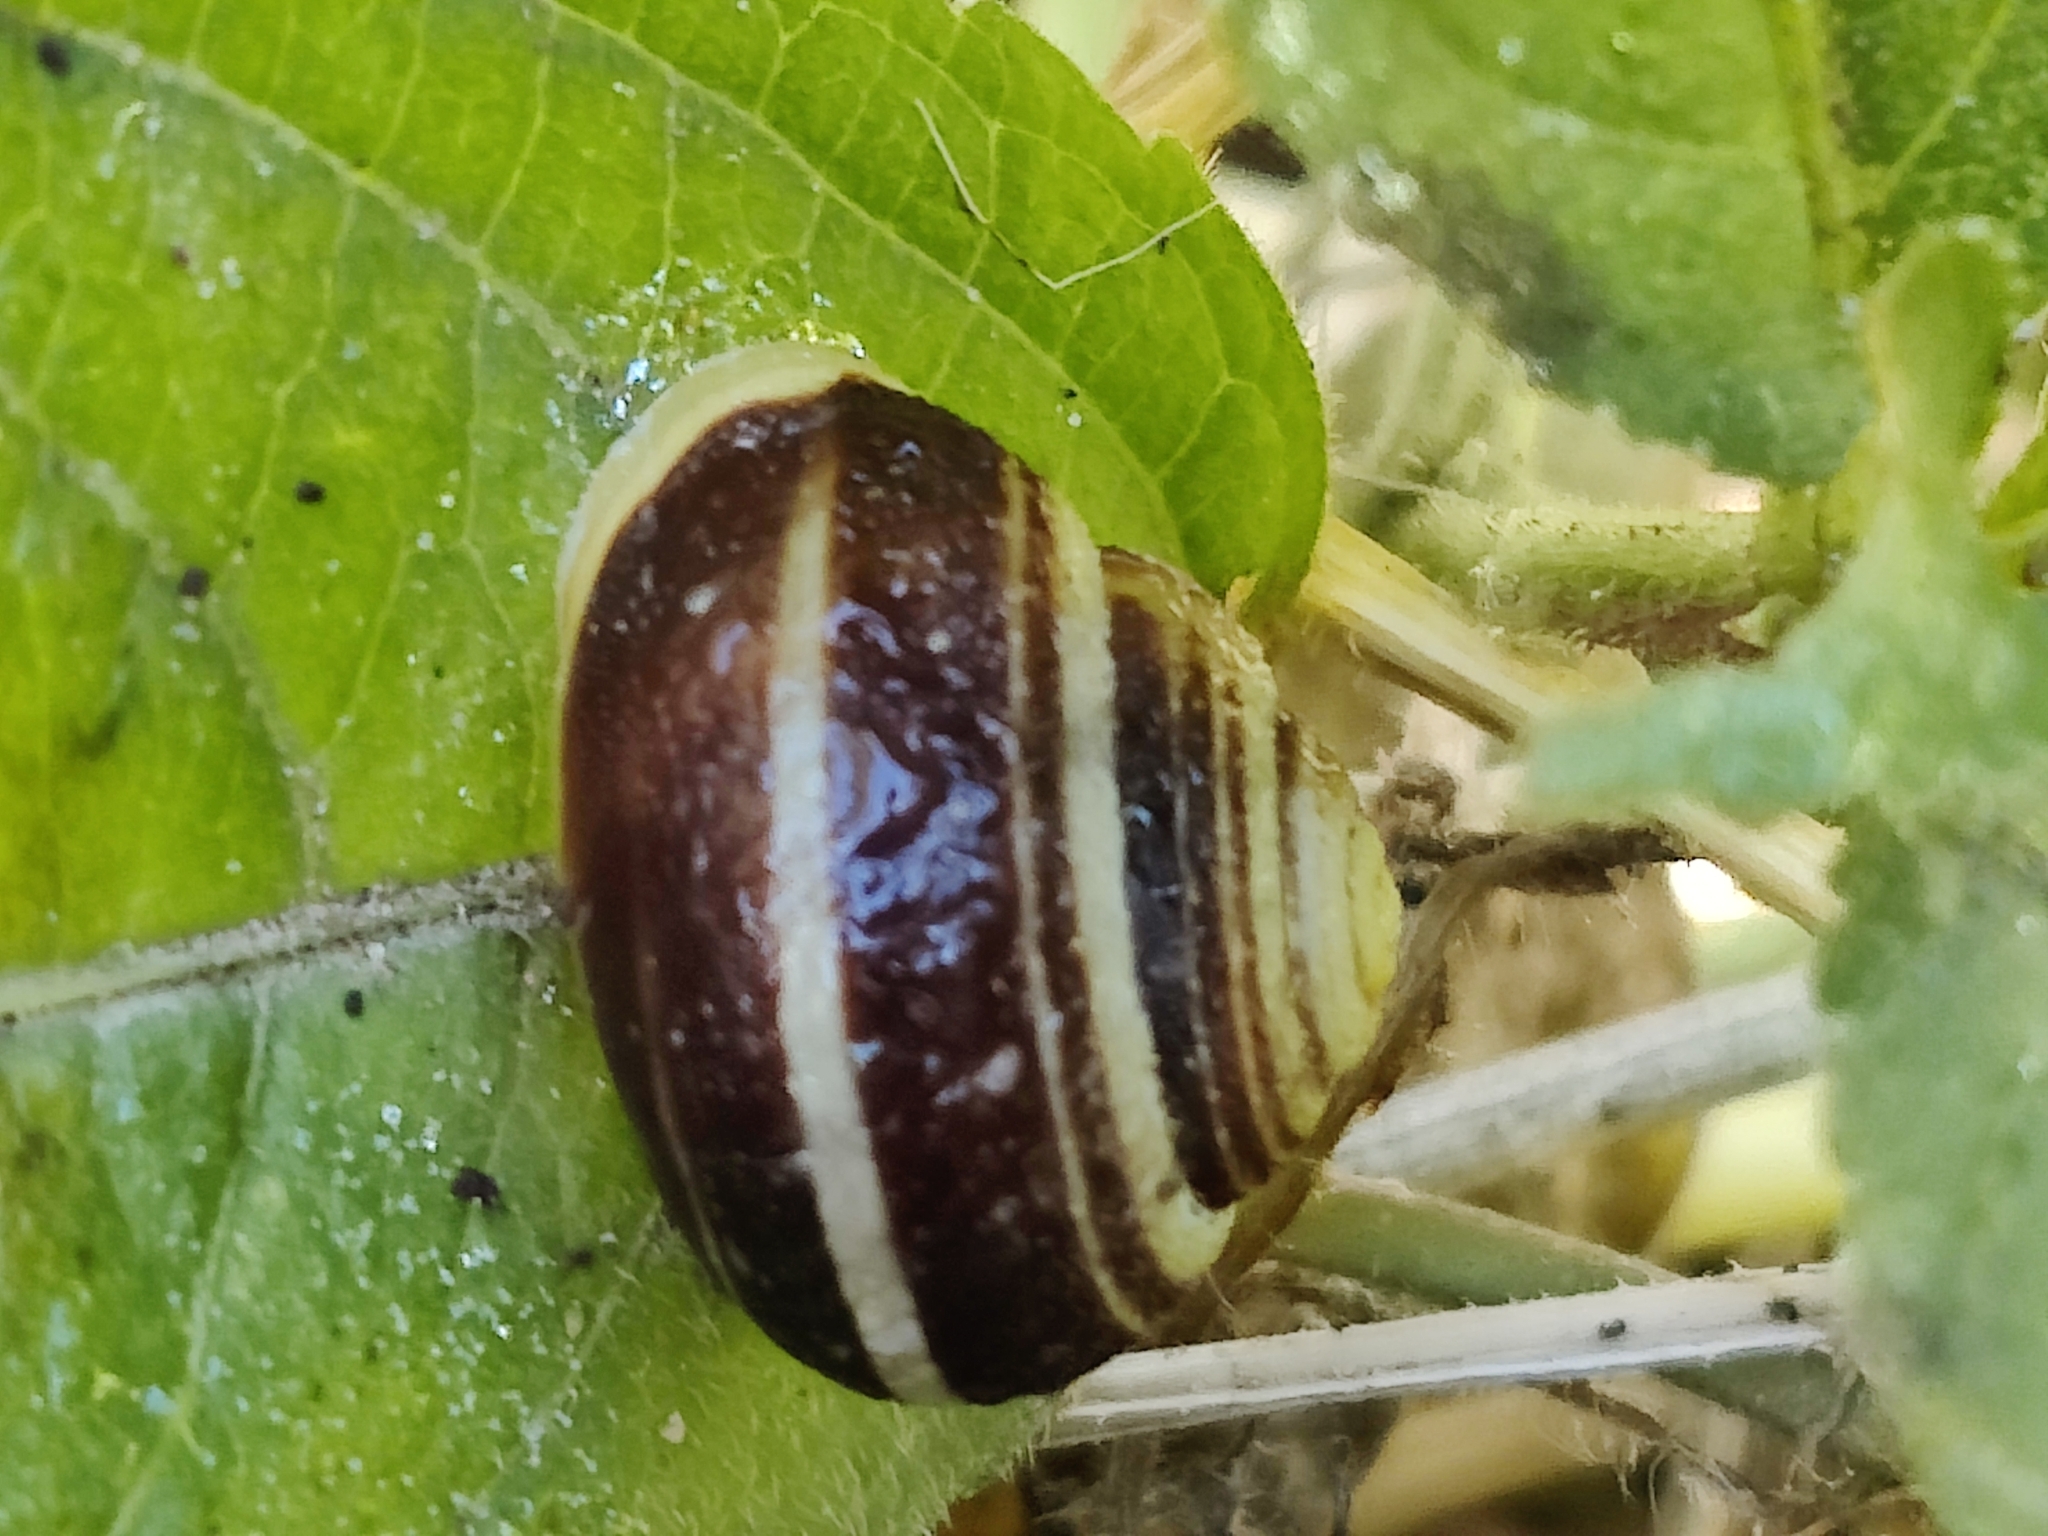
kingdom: Animalia
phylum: Mollusca
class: Gastropoda
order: Stylommatophora
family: Helicidae
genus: Cepaea
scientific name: Cepaea hortensis
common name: White-lip gardensnail
